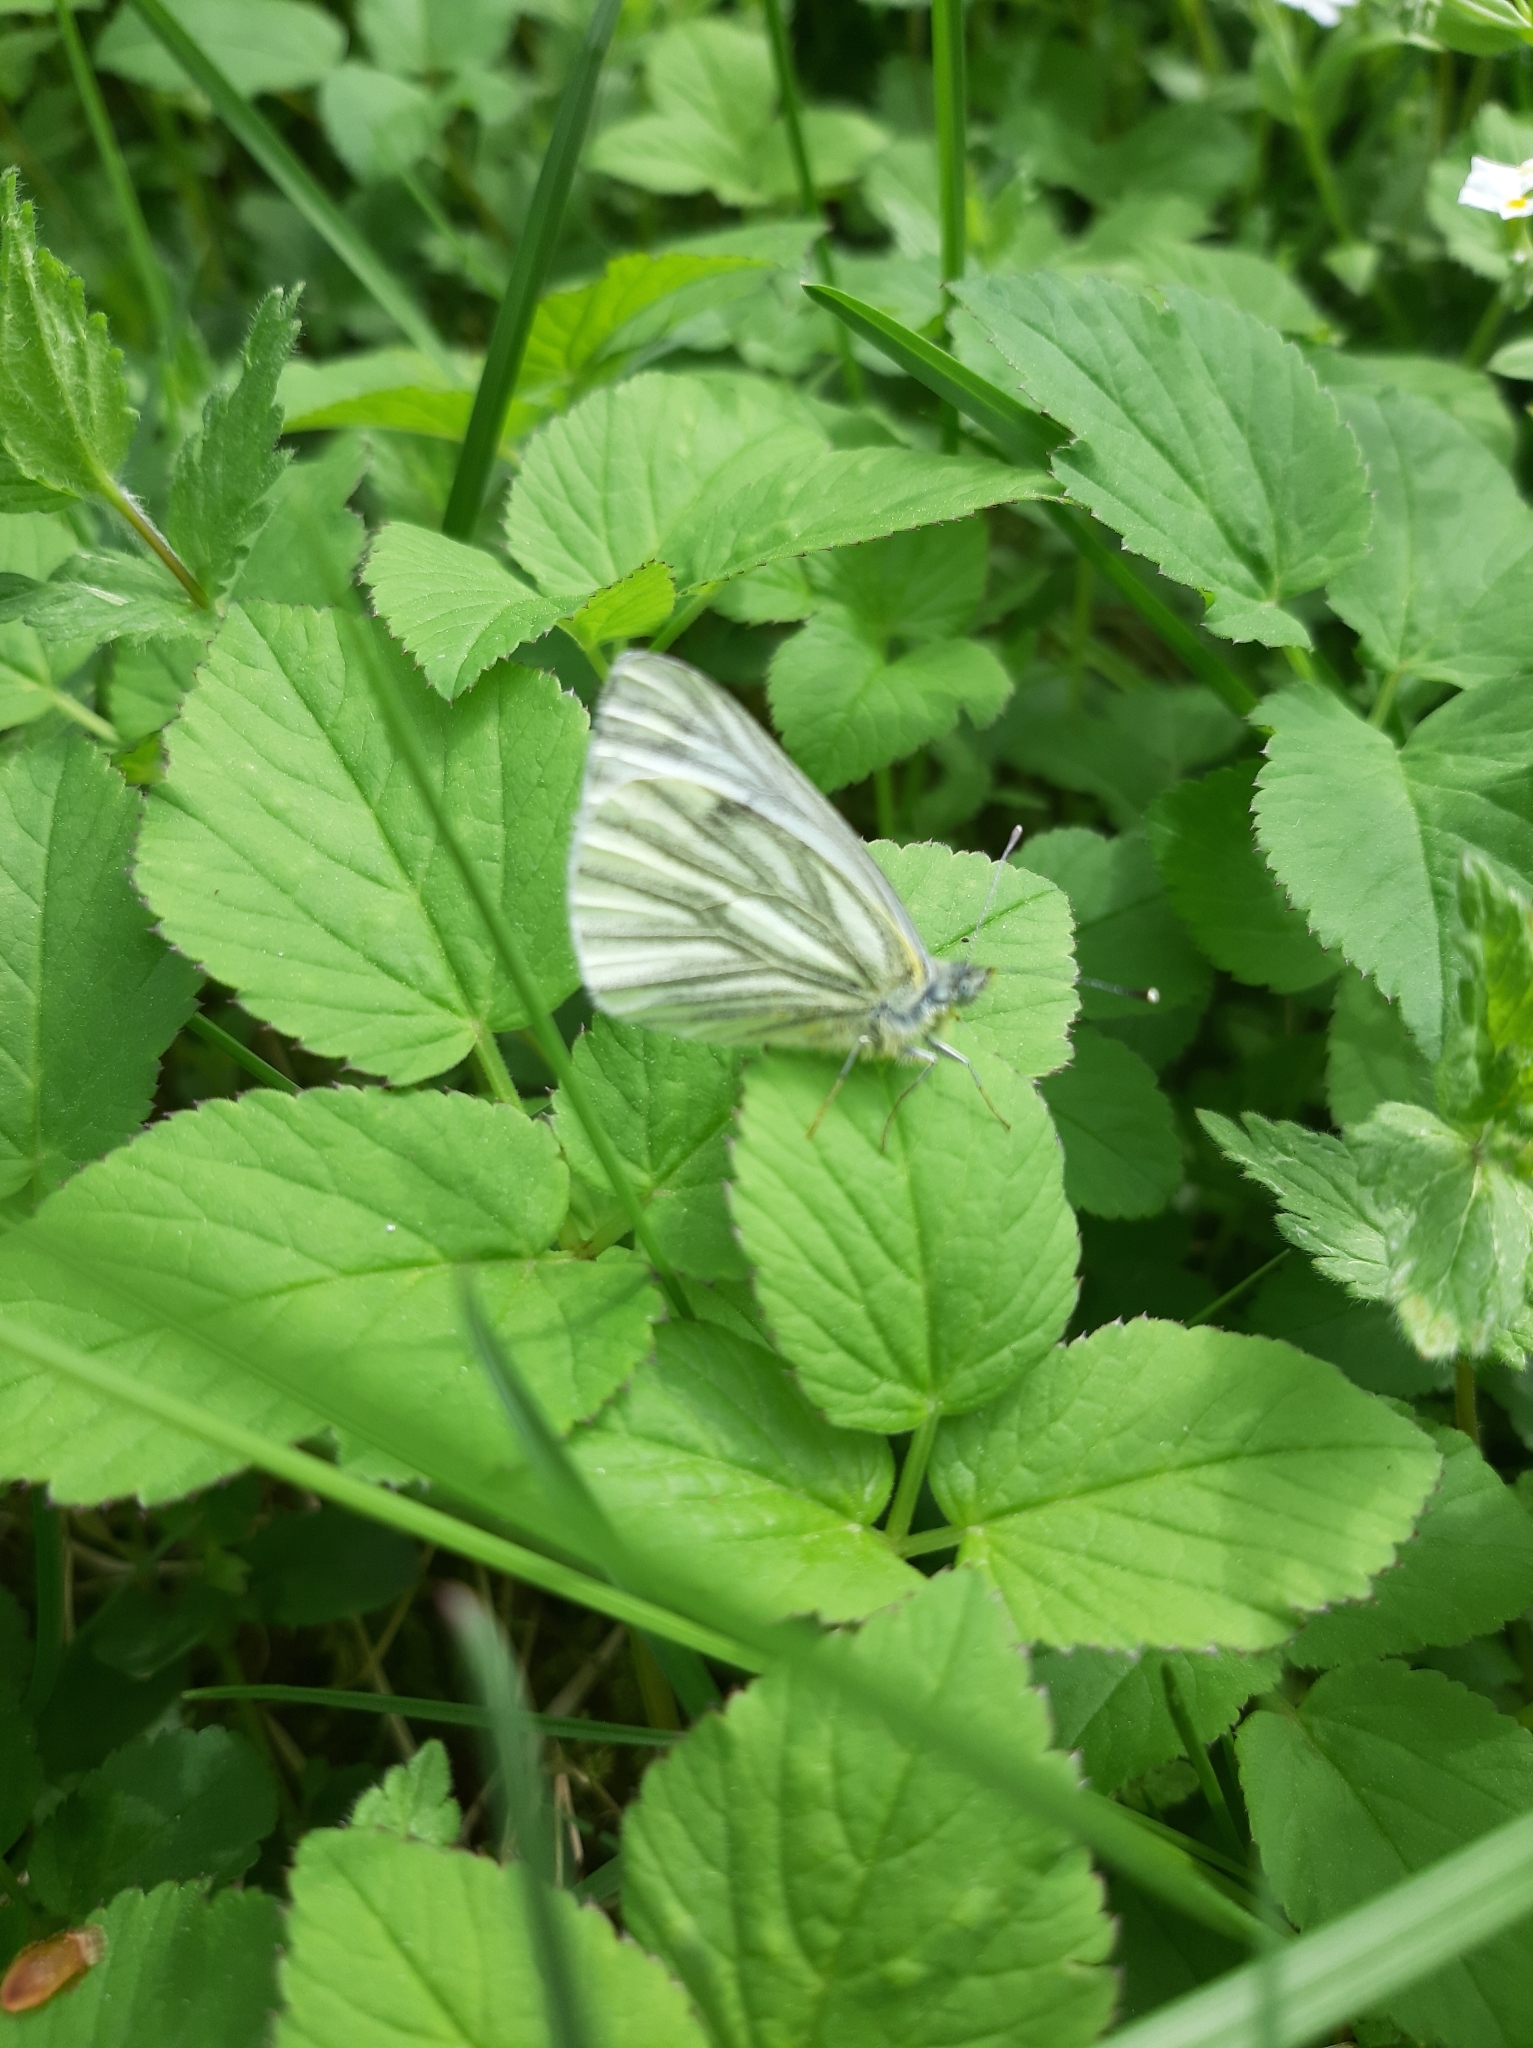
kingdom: Animalia
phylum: Arthropoda
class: Insecta
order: Lepidoptera
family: Pieridae
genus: Pieris
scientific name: Pieris napi
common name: Green-veined white
